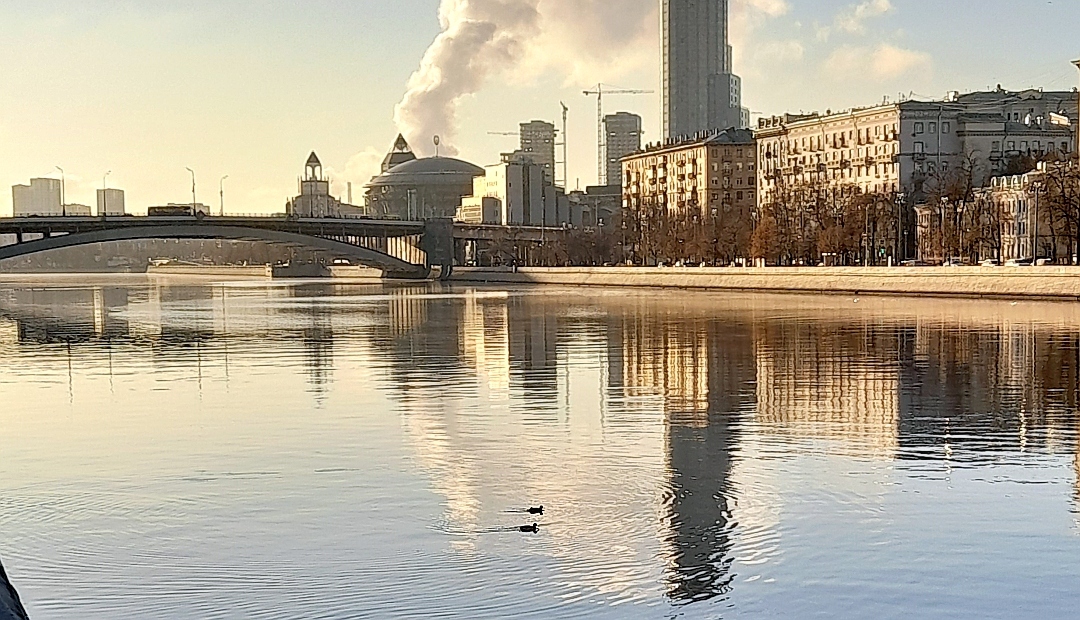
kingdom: Animalia
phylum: Chordata
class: Aves
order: Anseriformes
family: Anatidae
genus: Anas
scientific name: Anas platyrhynchos
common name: Mallard
